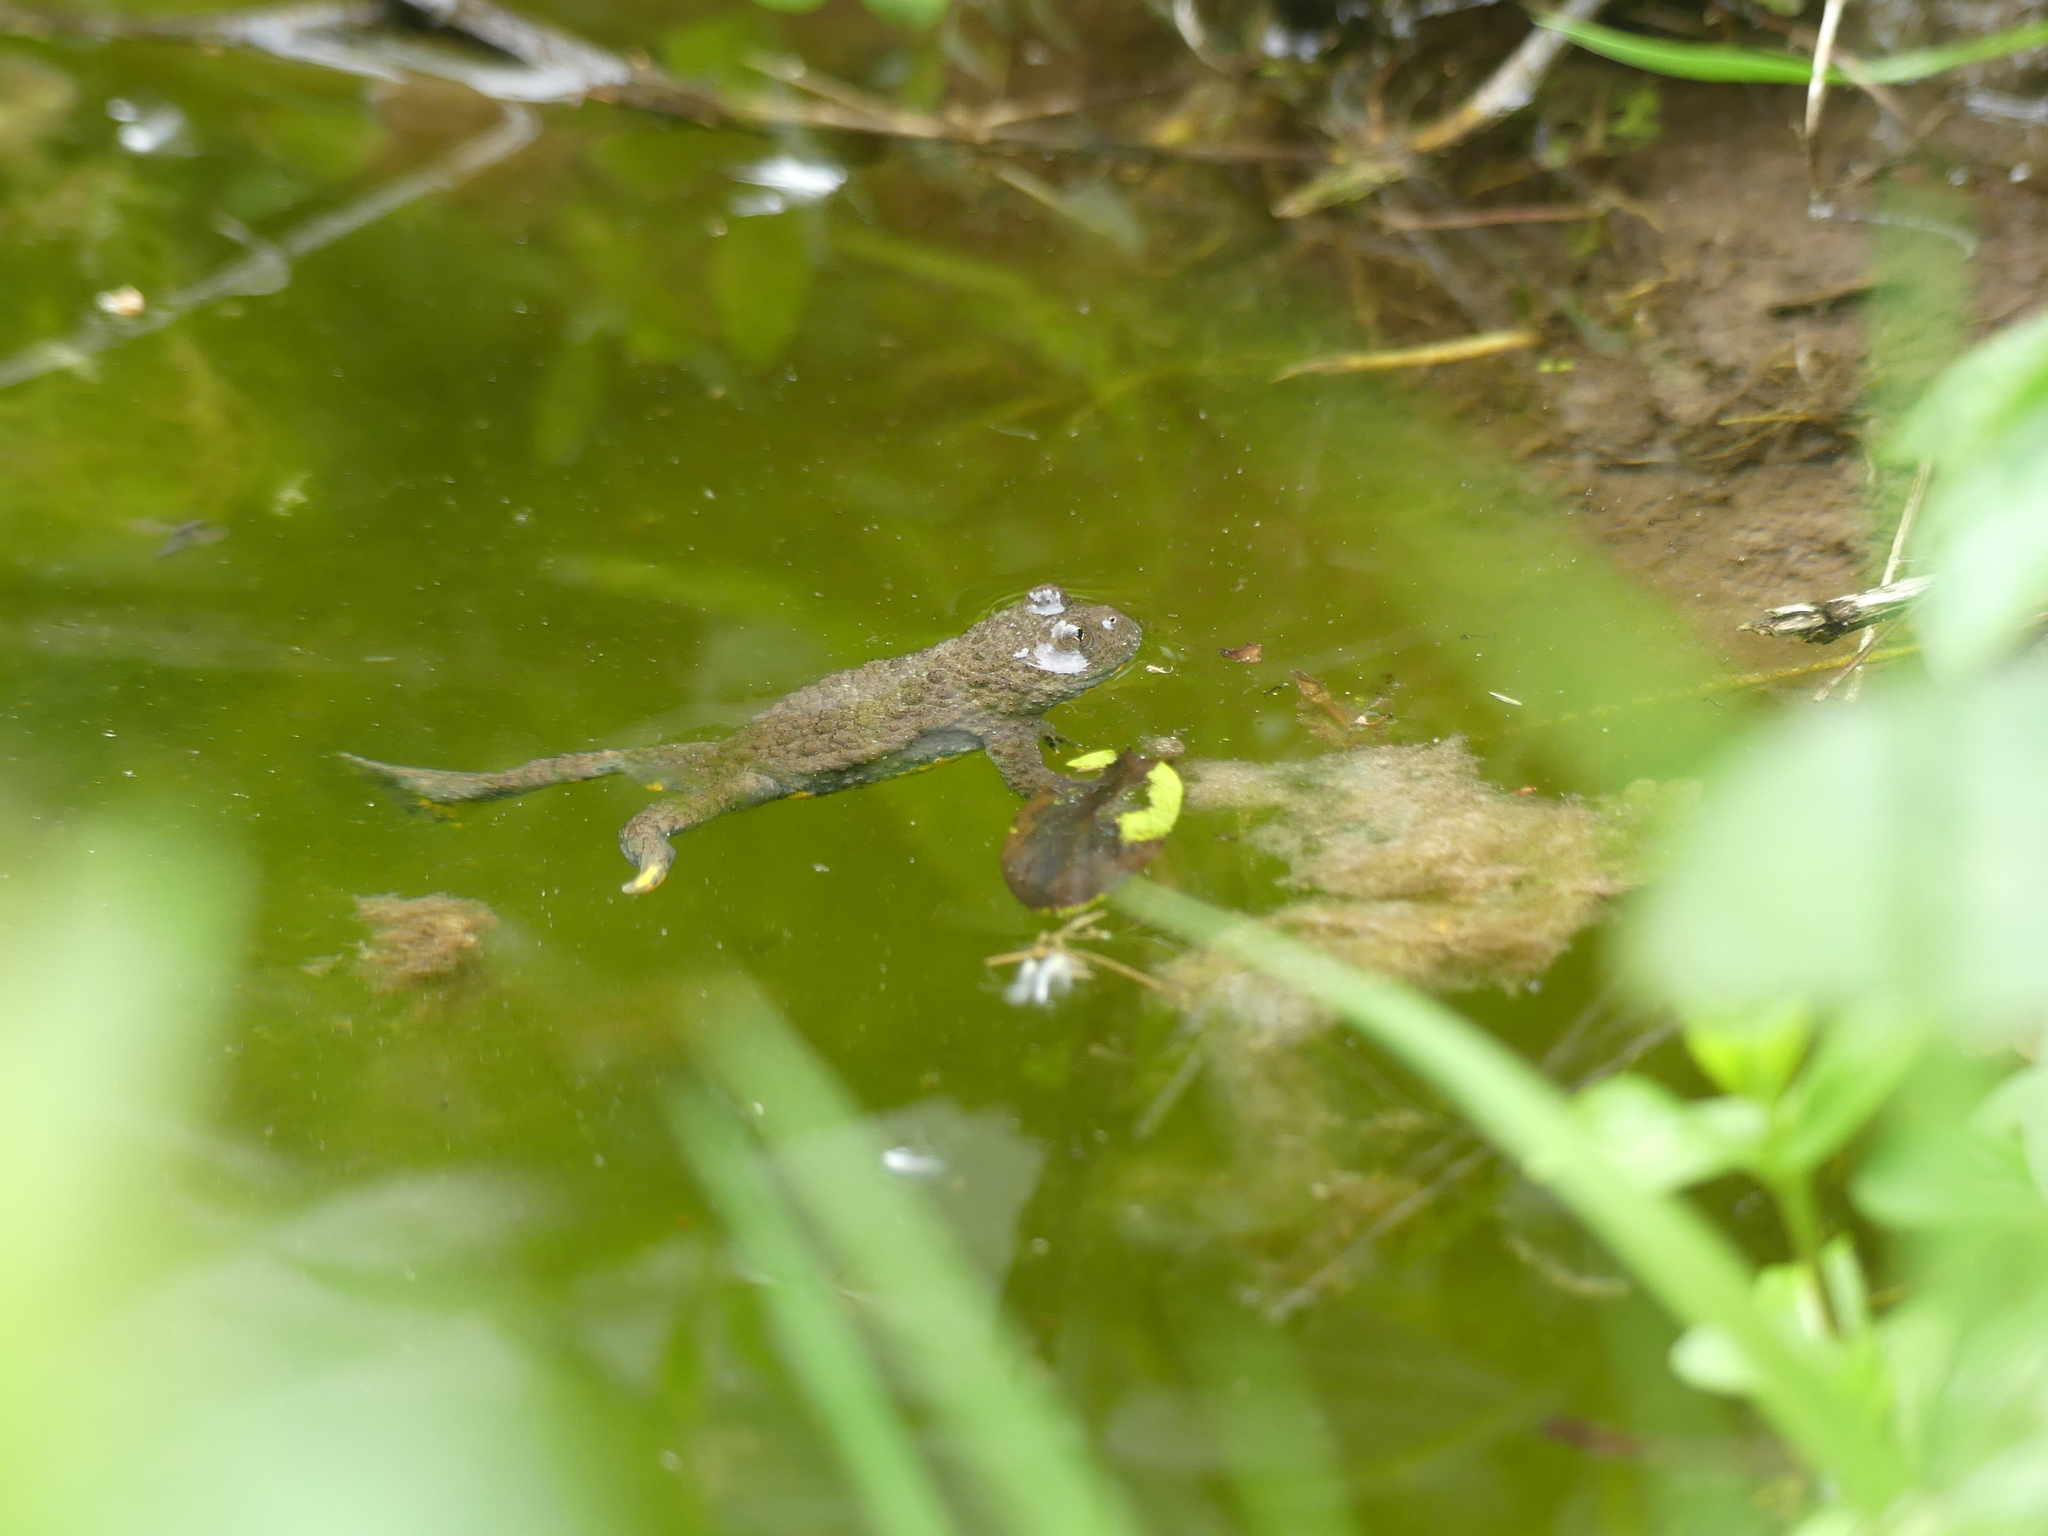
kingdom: Animalia
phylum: Chordata
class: Amphibia
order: Anura
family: Bombinatoridae
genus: Bombina
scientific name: Bombina variegata
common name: Yellow-bellied toad
